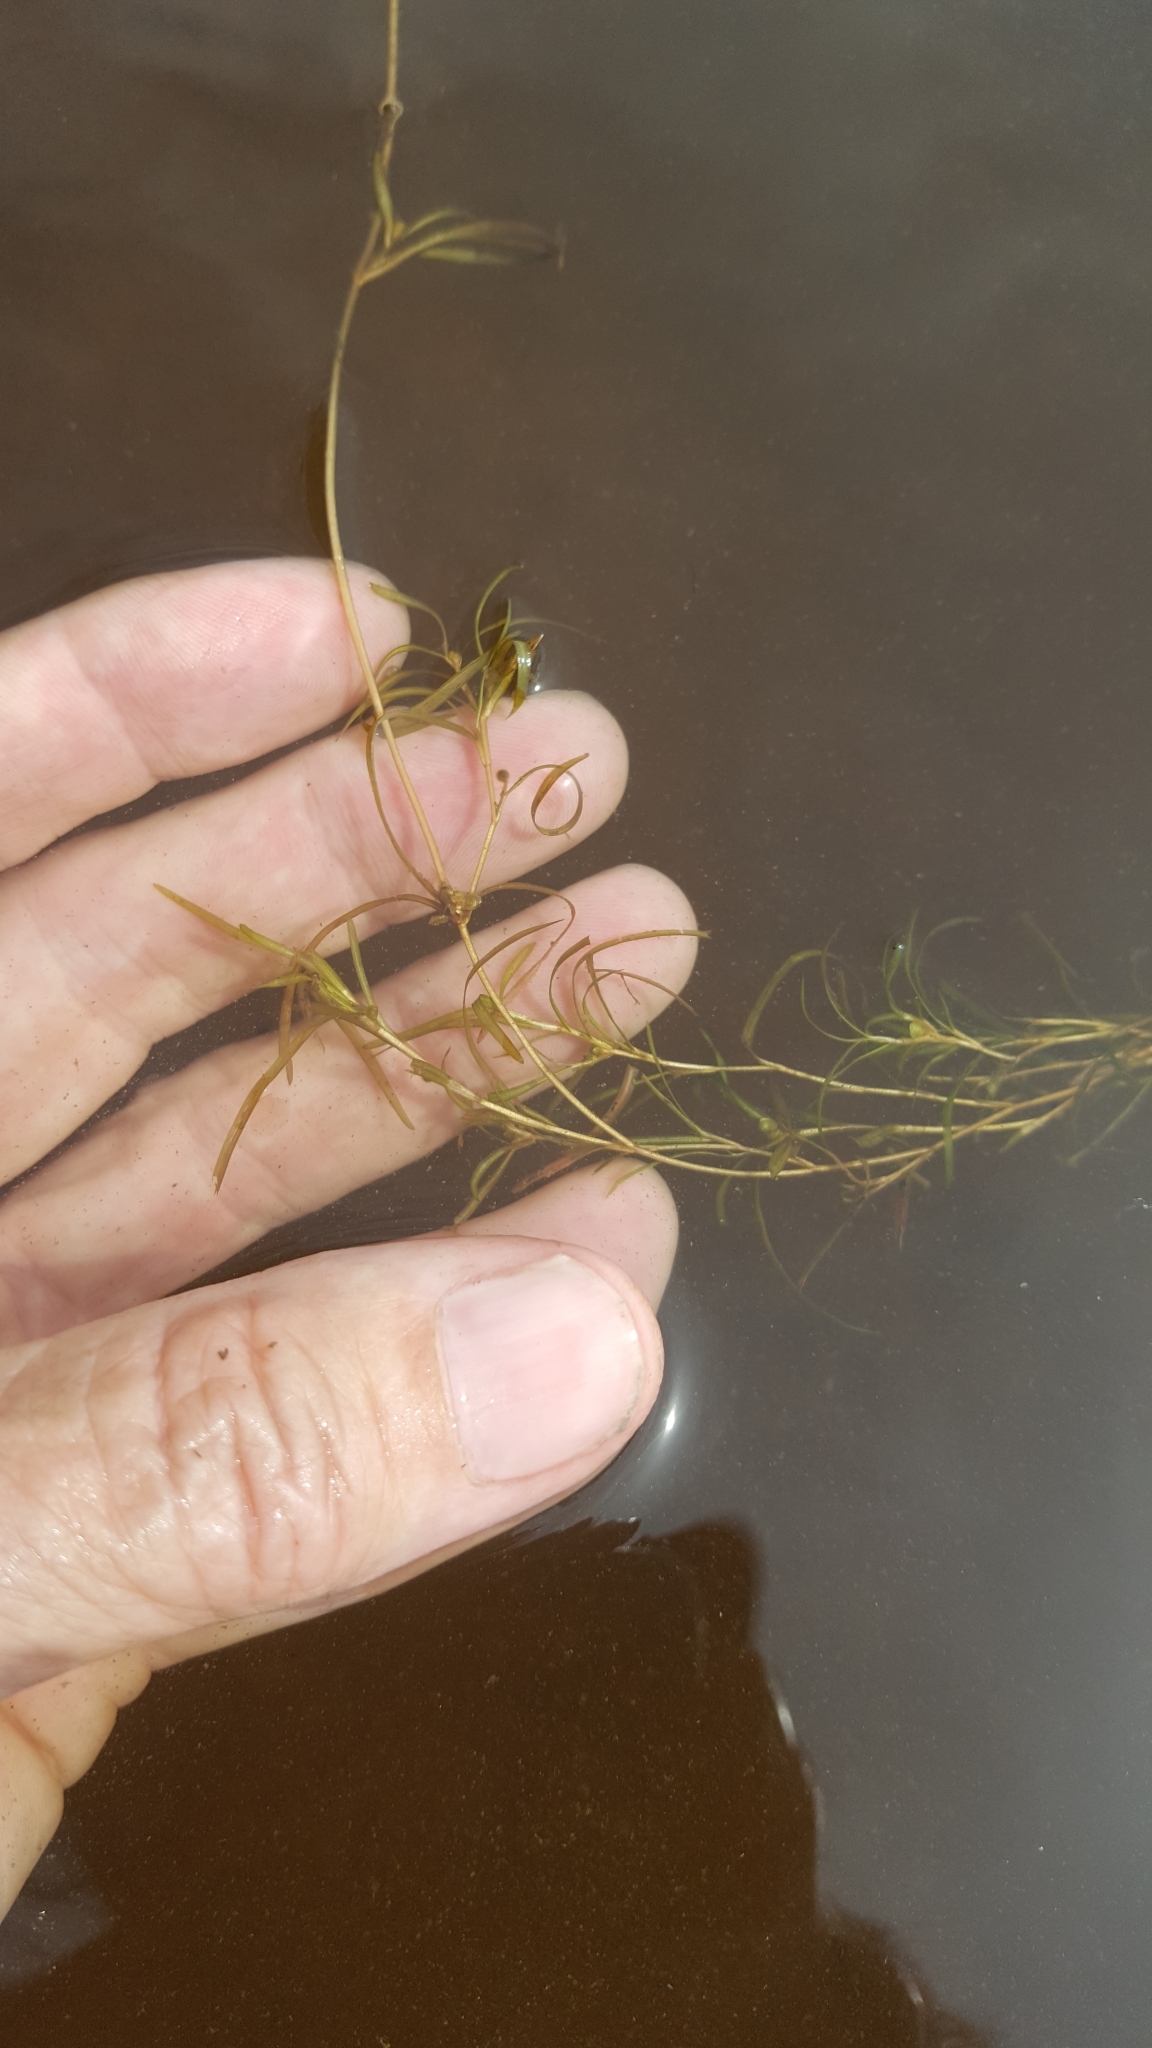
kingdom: Plantae
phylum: Tracheophyta
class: Liliopsida
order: Alismatales
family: Potamogetonaceae
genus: Potamogeton
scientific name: Potamogeton spirillus
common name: Northern snail-seed pondweed
